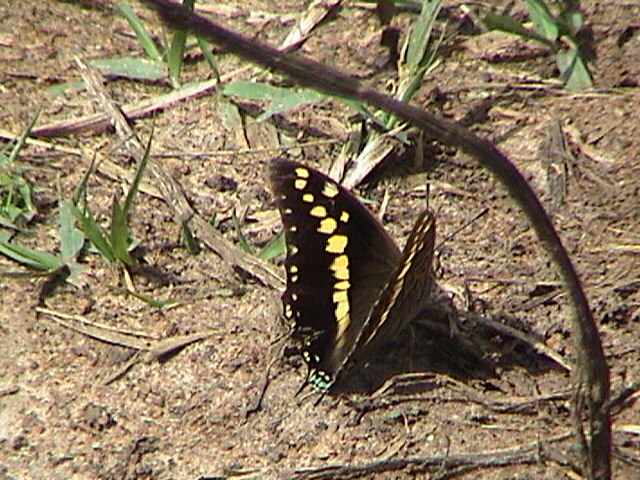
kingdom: Animalia
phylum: Arthropoda
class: Insecta
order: Lepidoptera
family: Nymphalidae
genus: Charaxes
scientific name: Charaxes solon
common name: Black rajah
